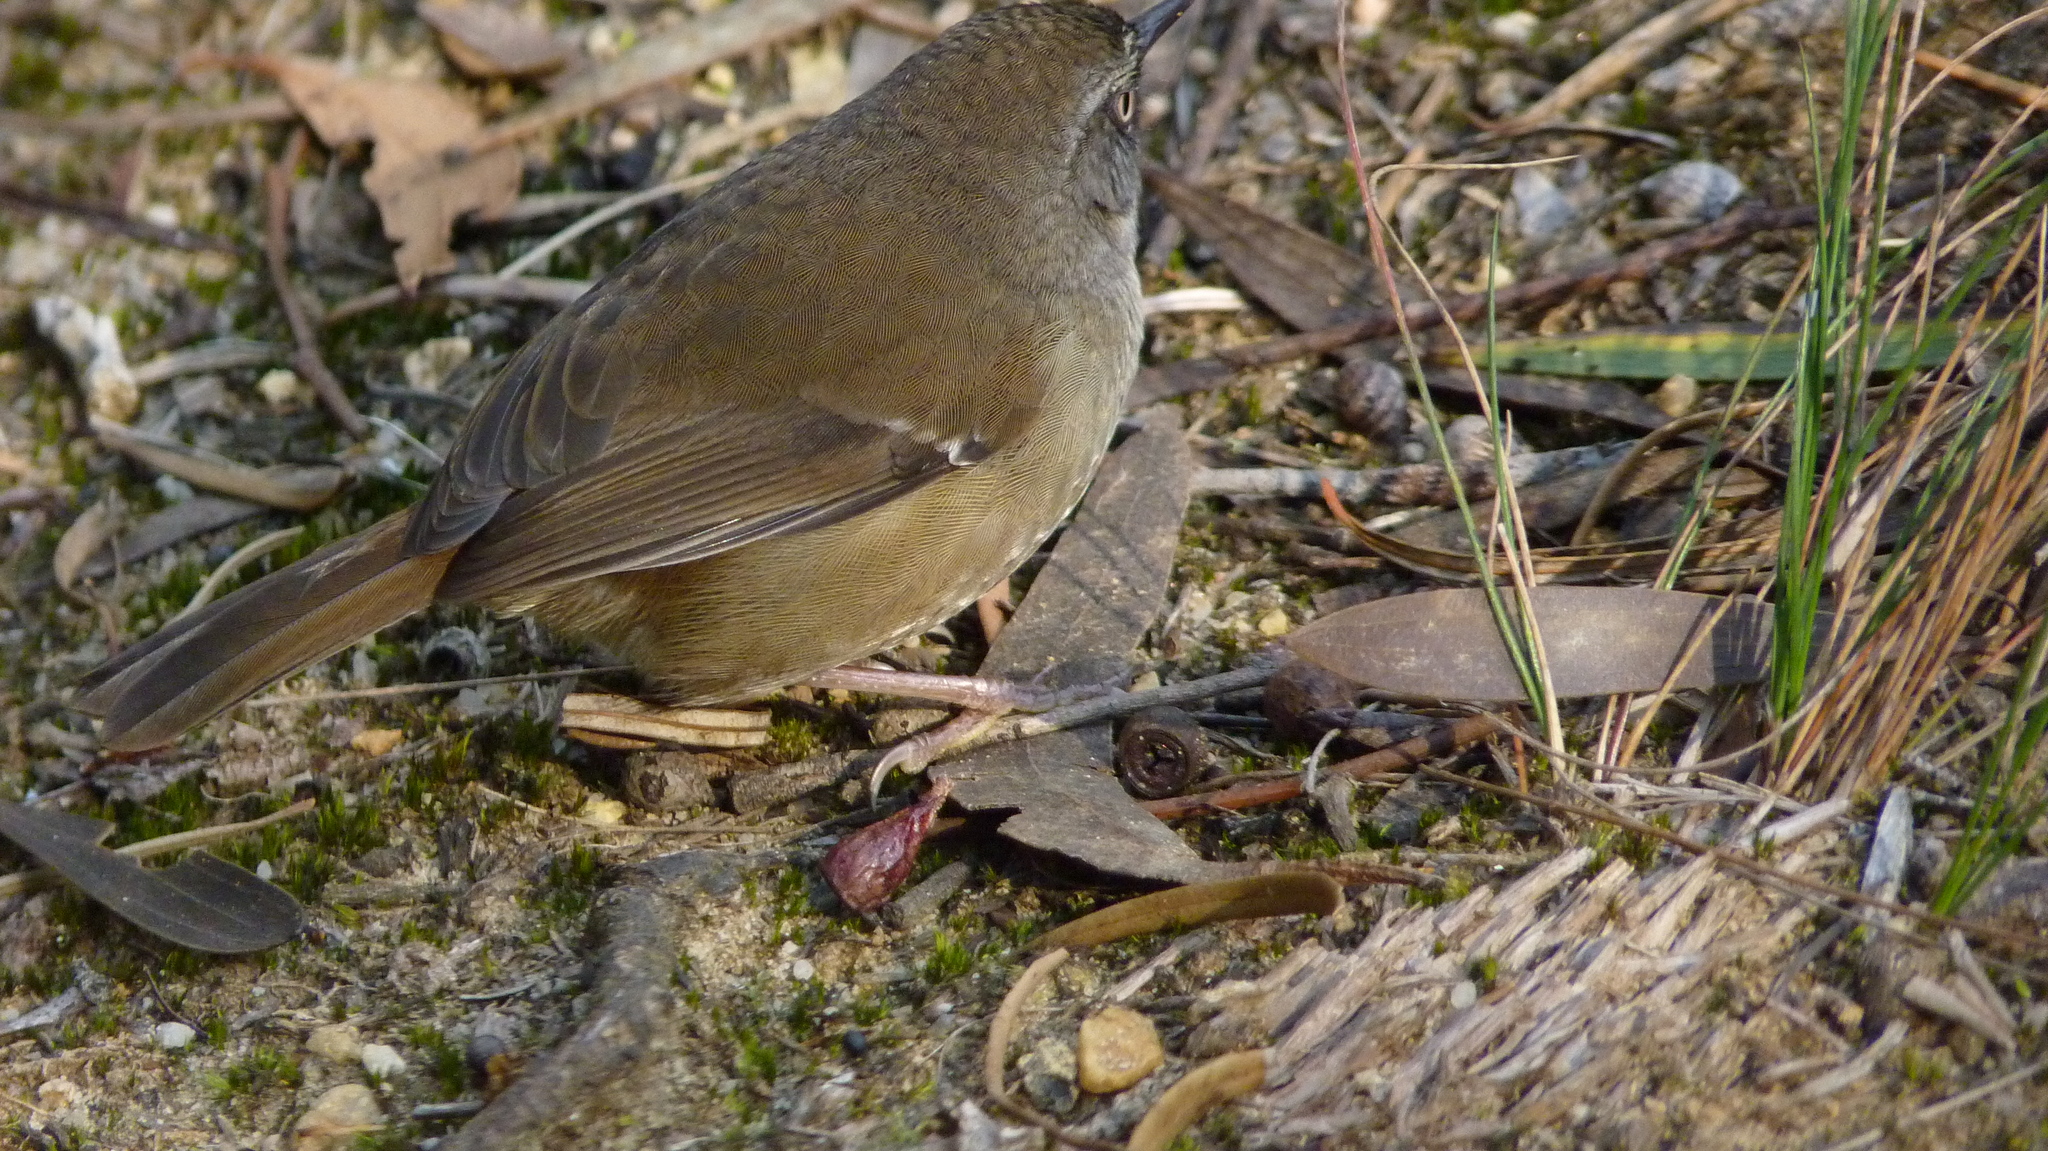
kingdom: Animalia
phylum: Chordata
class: Aves
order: Passeriformes
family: Acanthizidae
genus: Sericornis
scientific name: Sericornis frontalis
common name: White-browed scrubwren
